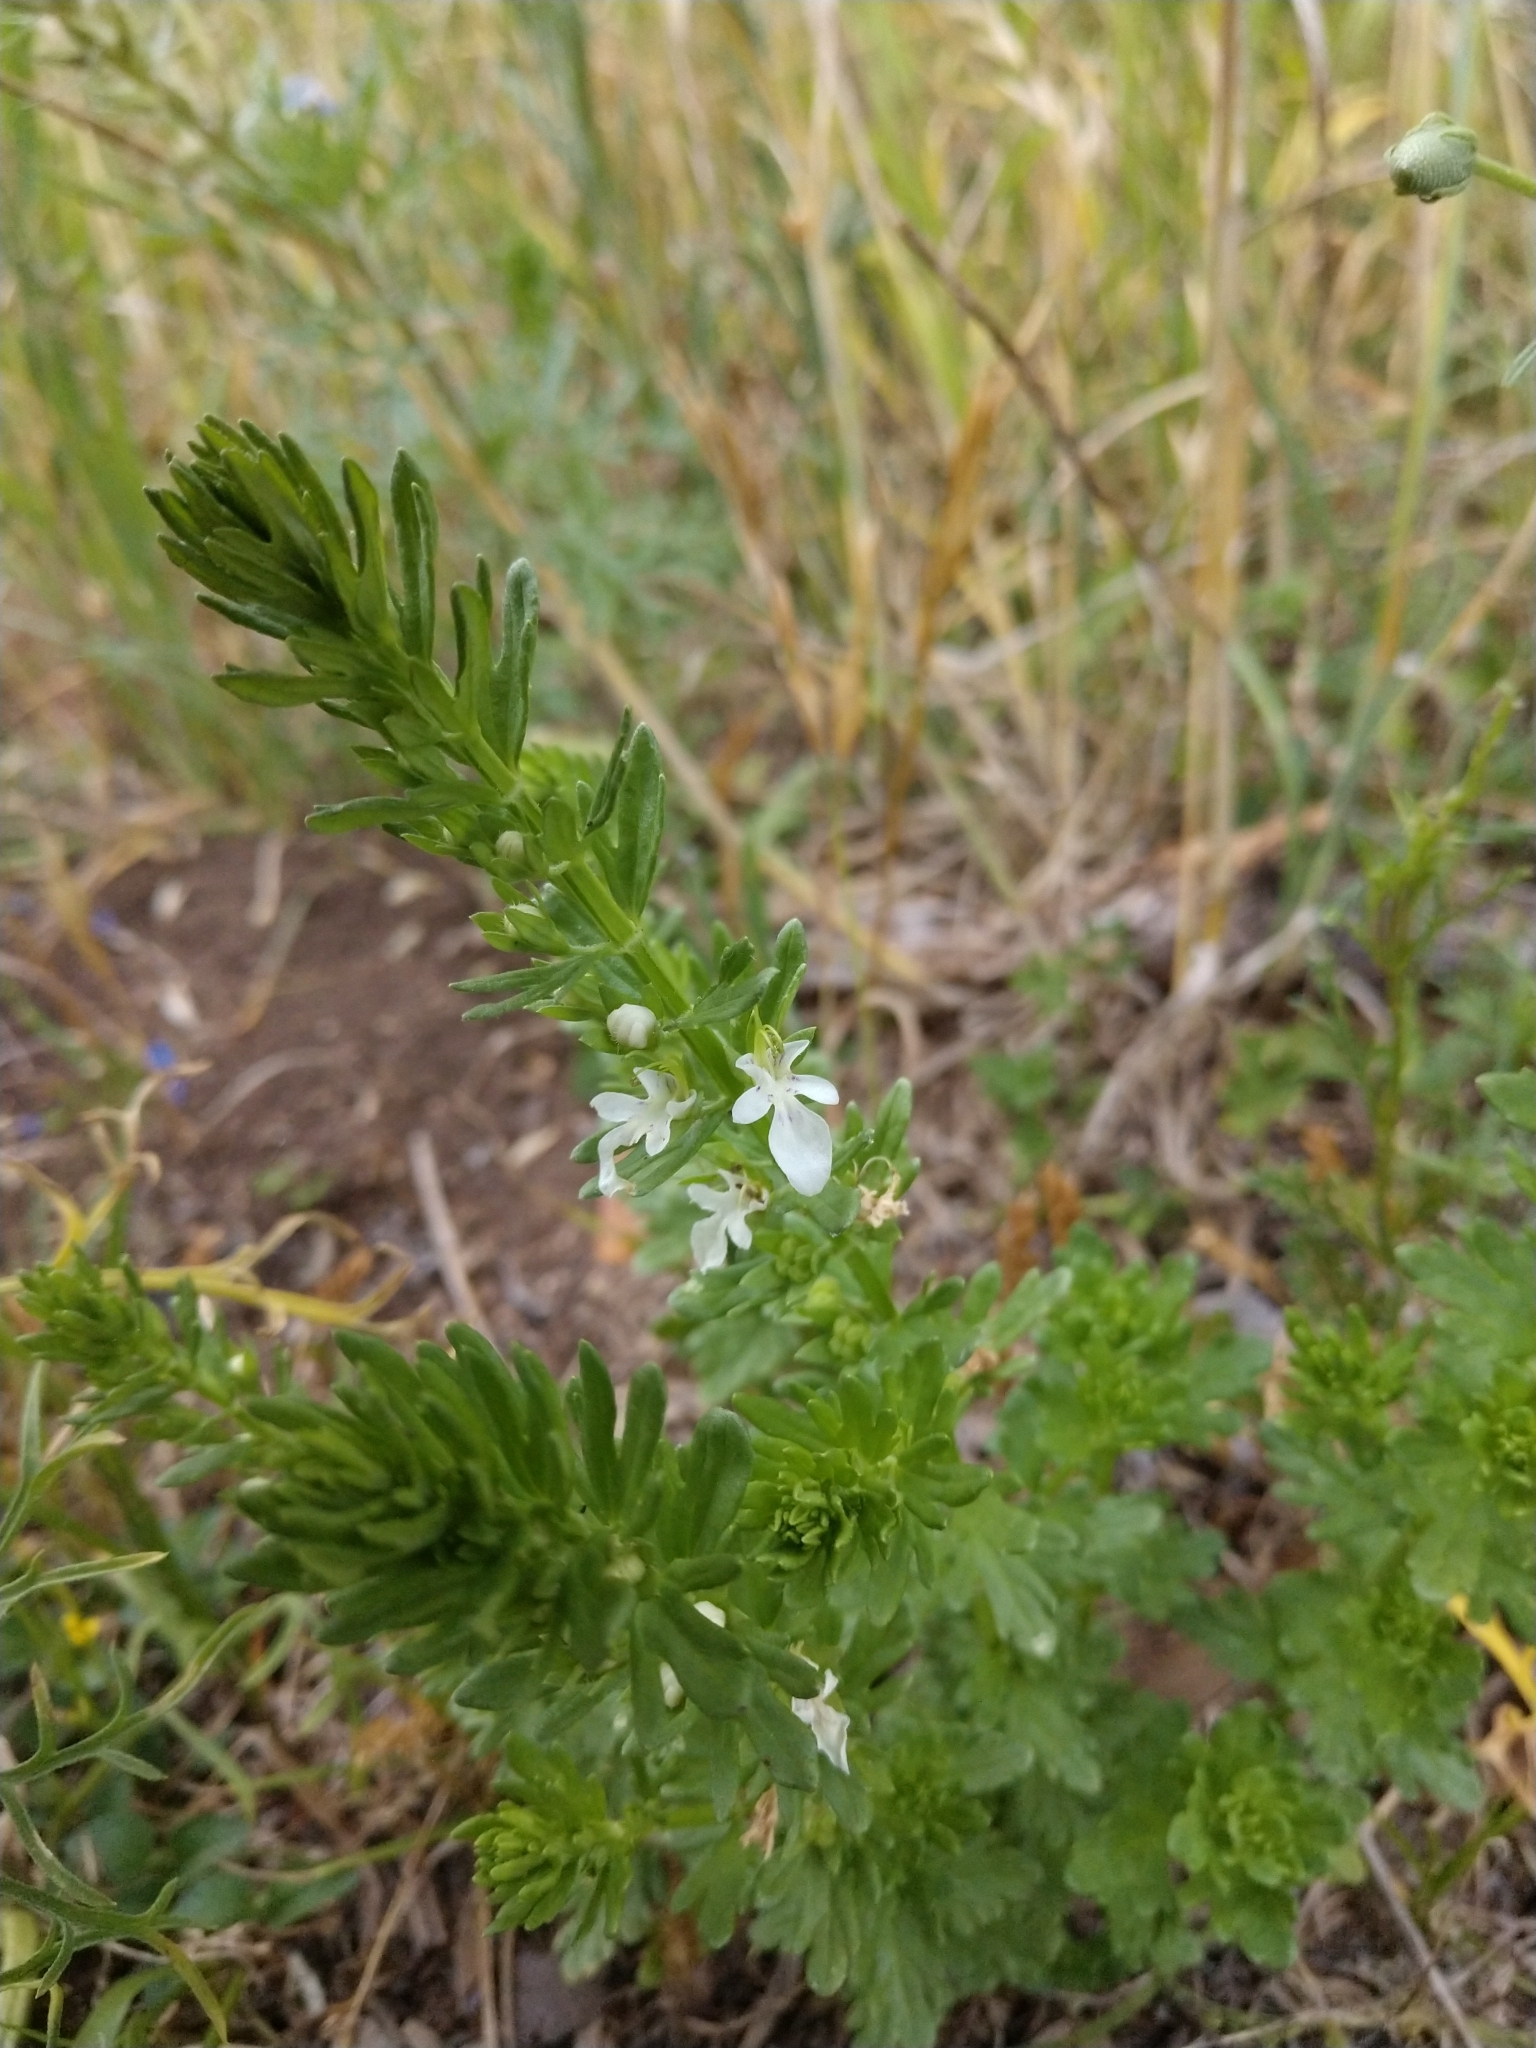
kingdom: Plantae
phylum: Tracheophyta
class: Magnoliopsida
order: Lamiales
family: Lamiaceae
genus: Teucrium
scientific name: Teucrium cubense
